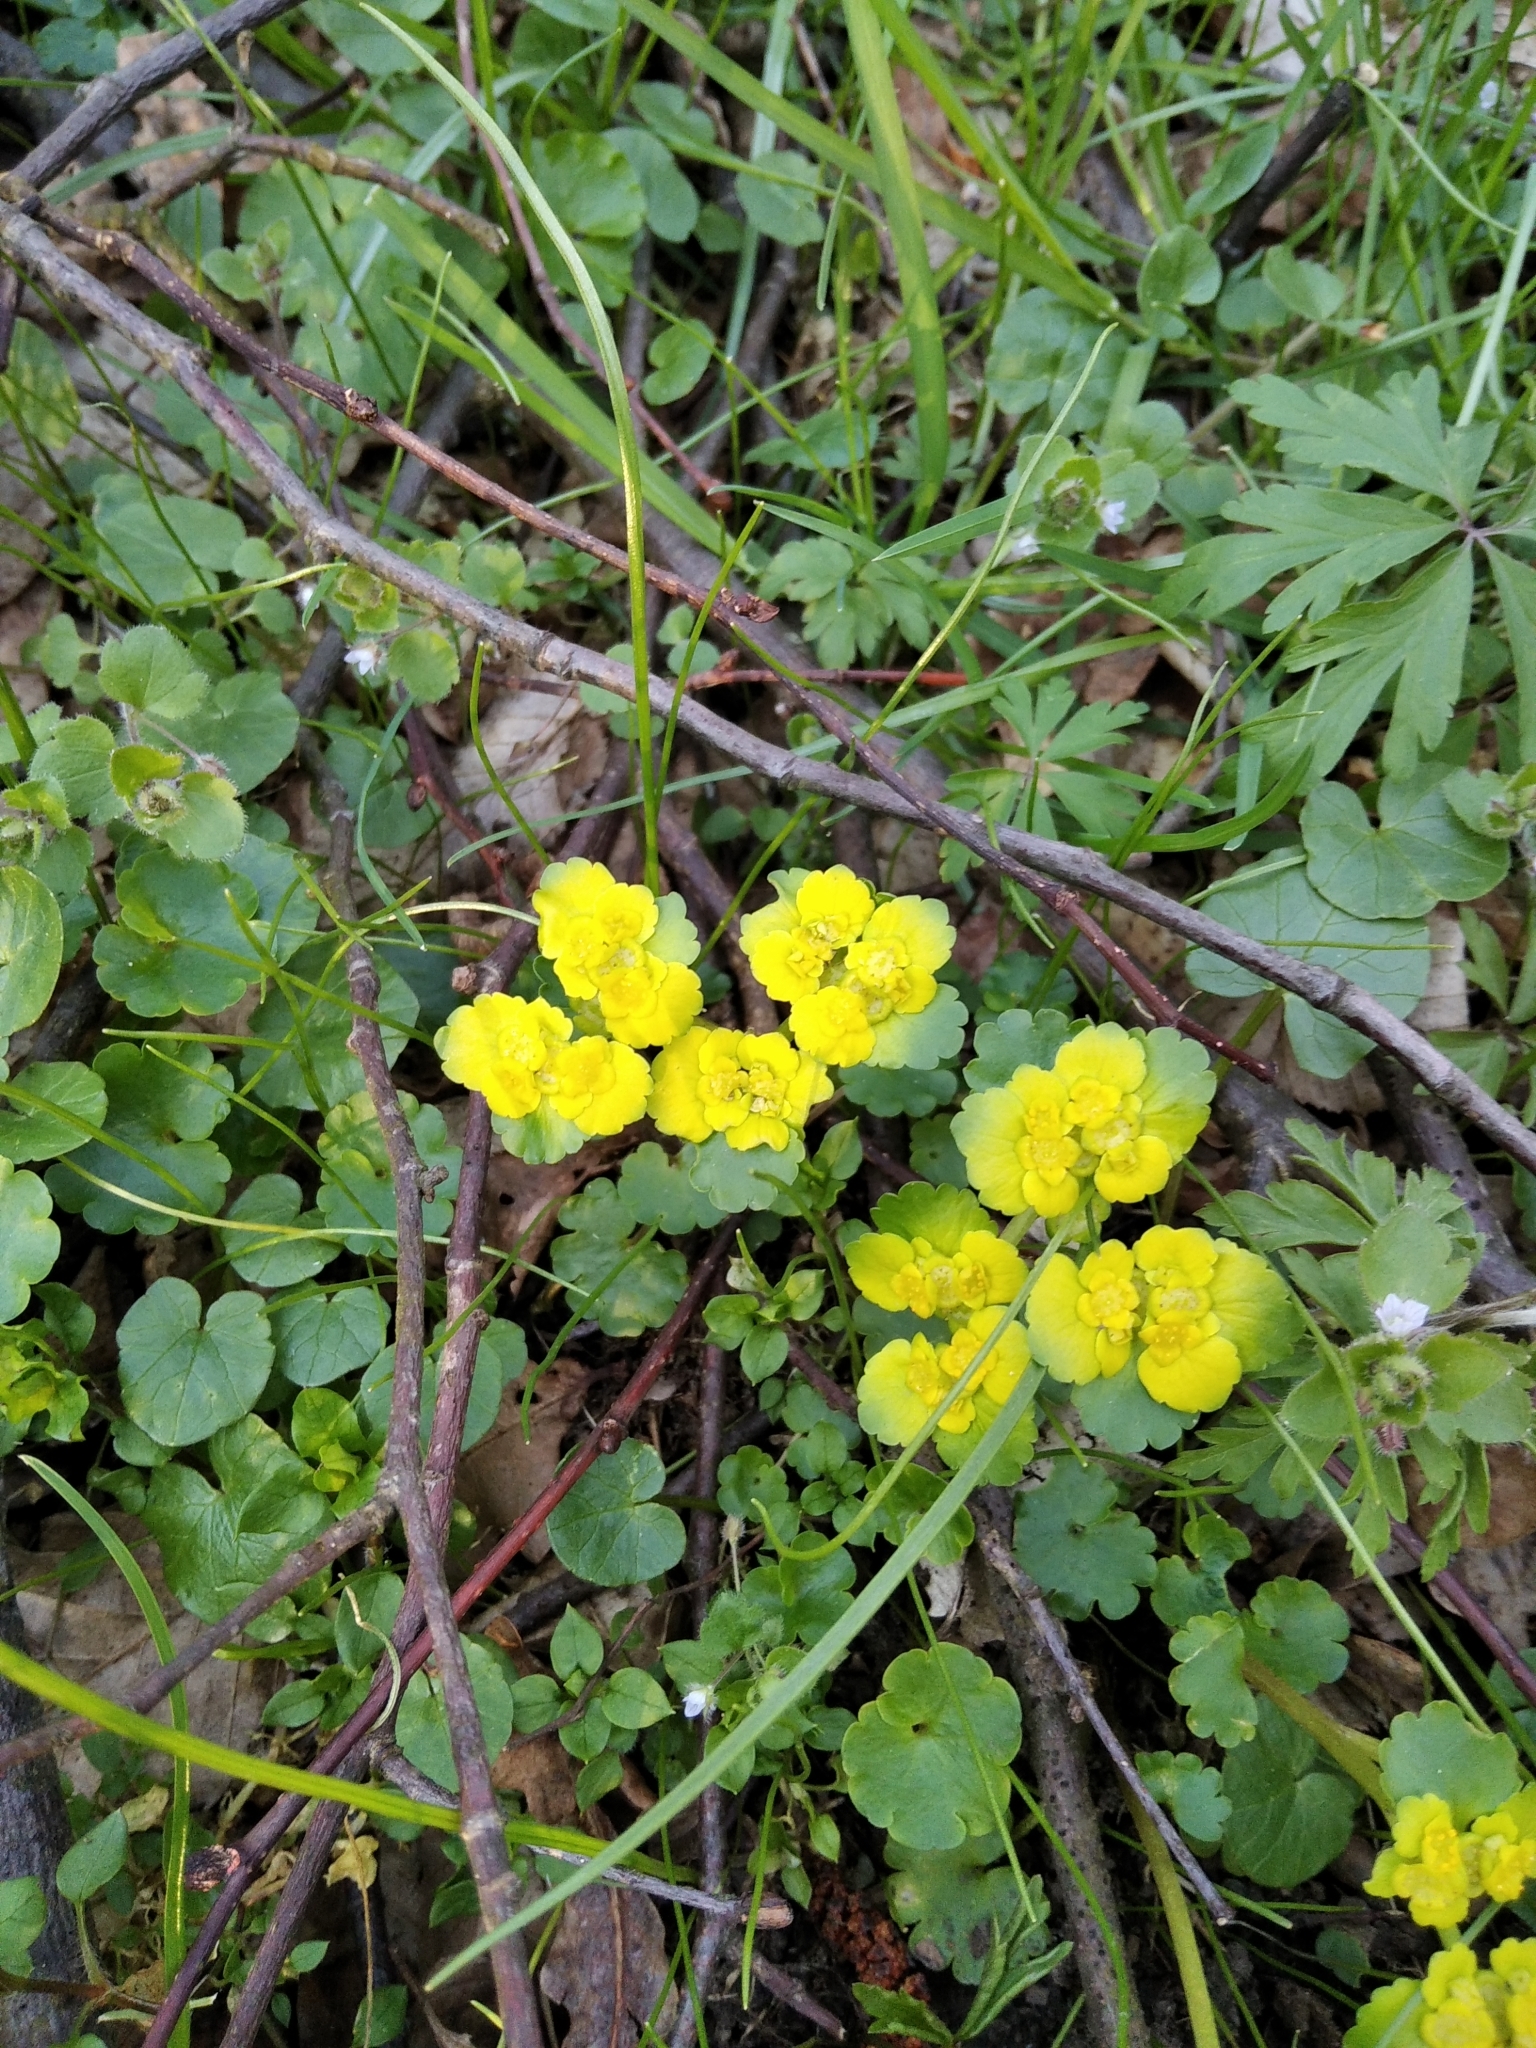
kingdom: Plantae
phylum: Tracheophyta
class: Magnoliopsida
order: Saxifragales
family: Saxifragaceae
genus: Chrysosplenium
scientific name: Chrysosplenium alternifolium
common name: Alternate-leaved golden-saxifrage
